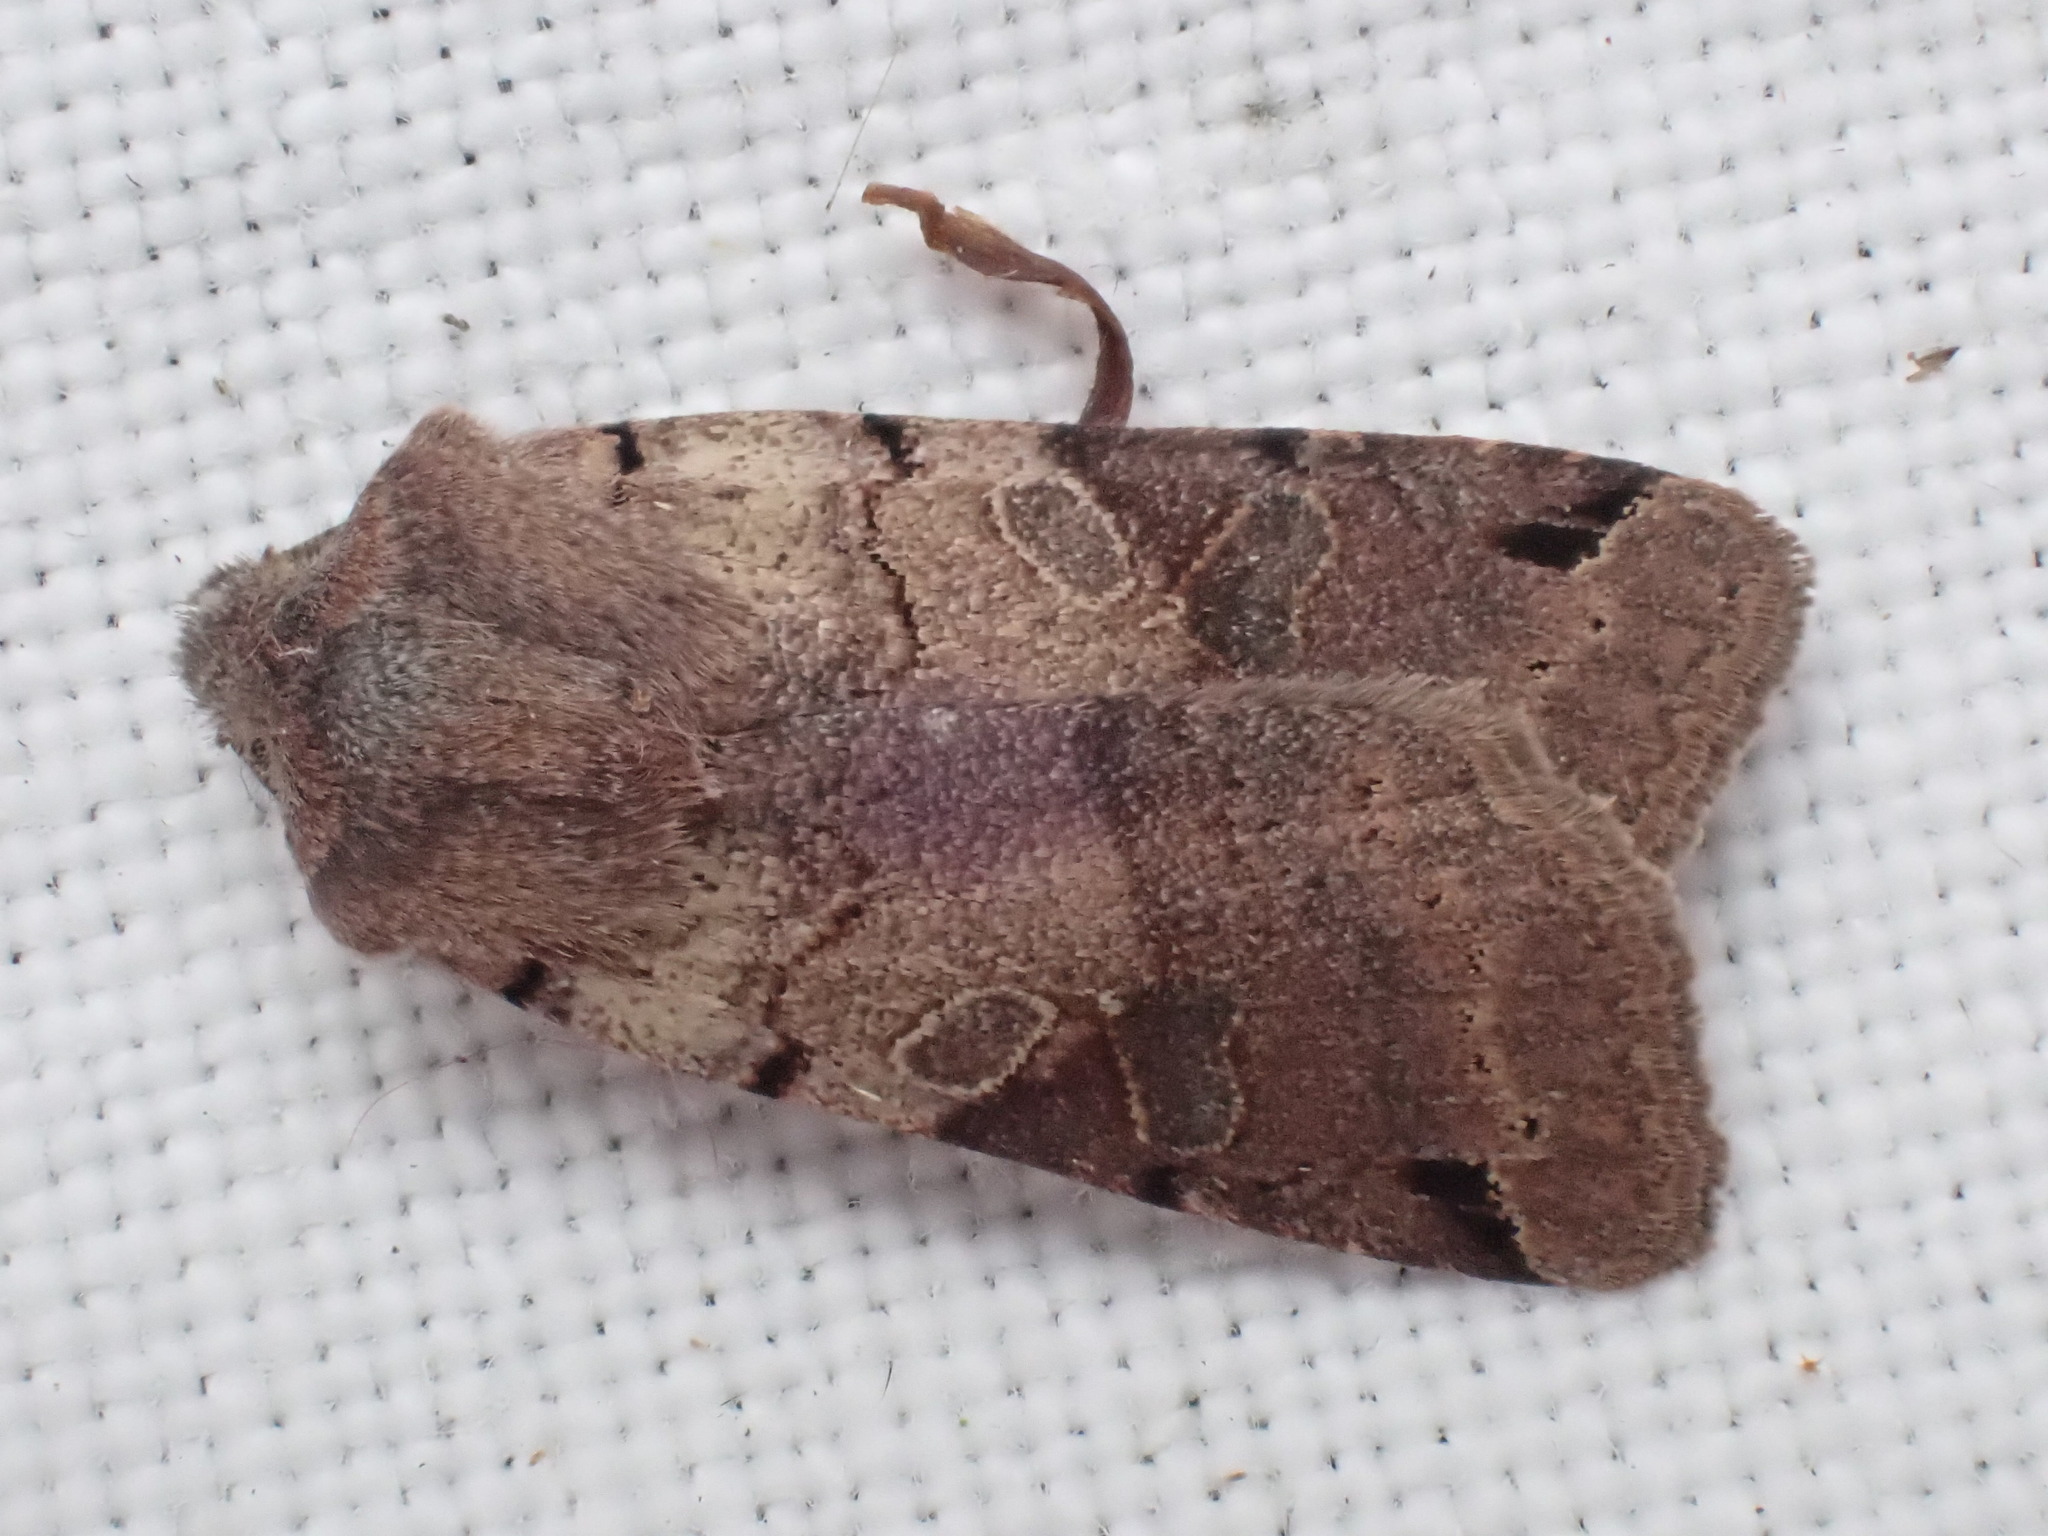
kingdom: Animalia
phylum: Arthropoda
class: Insecta
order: Lepidoptera
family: Noctuidae
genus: Agrochola
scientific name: Agrochola litura
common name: Brown-spot pinion
